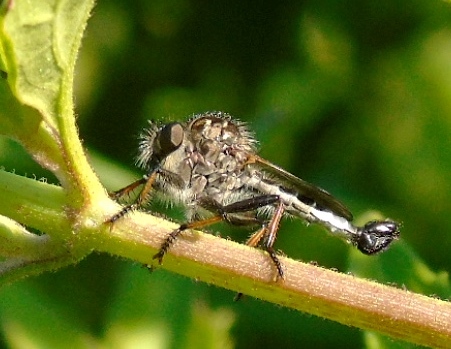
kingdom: Animalia
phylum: Arthropoda
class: Insecta
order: Diptera
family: Asilidae
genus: Efferia
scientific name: Efferia
